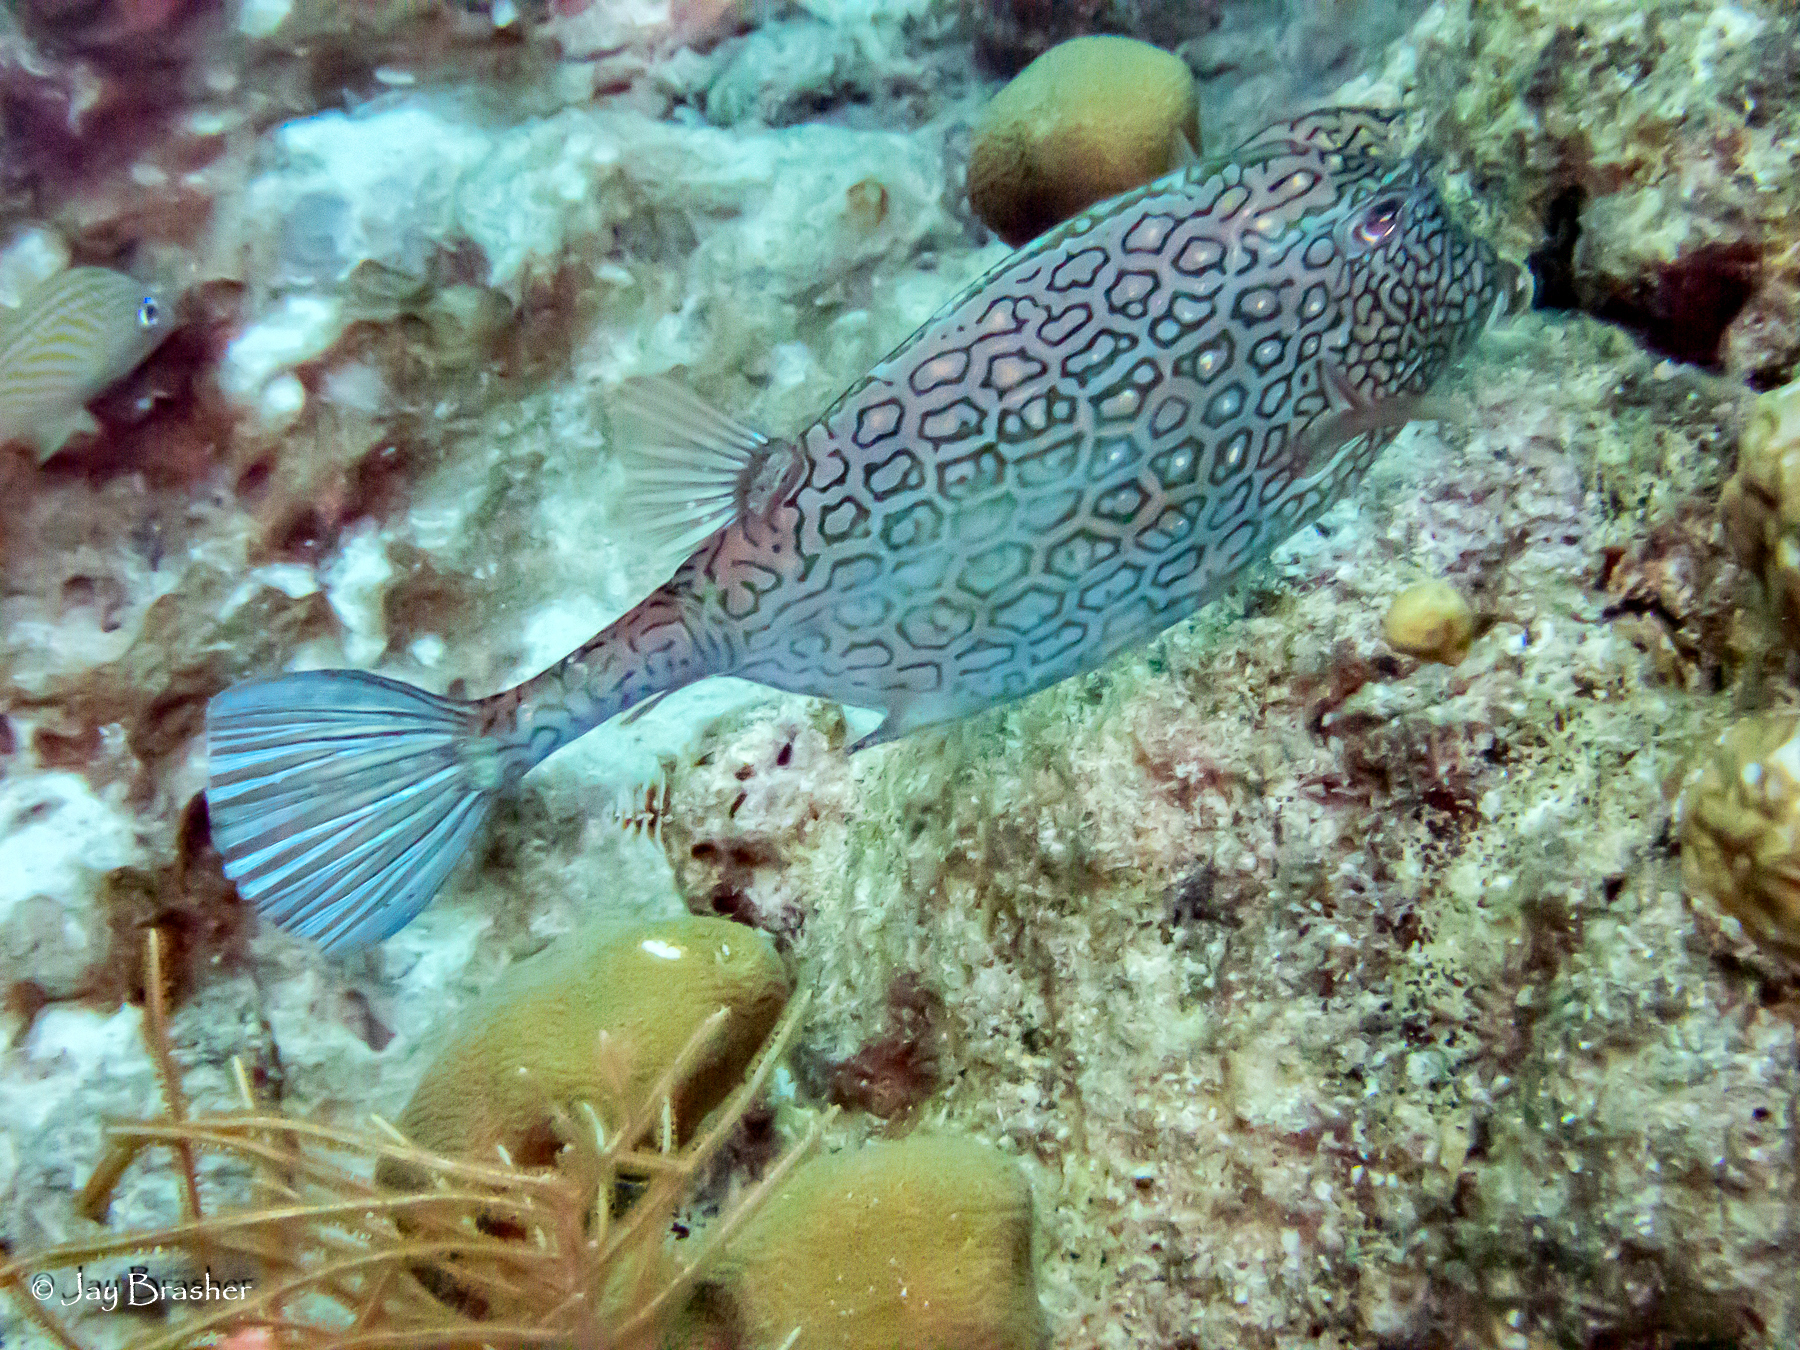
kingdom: Animalia
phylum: Chordata
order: Tetraodontiformes
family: Ostraciidae
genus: Acanthostracion
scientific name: Acanthostracion polygonius
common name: Honeycomb cowfish
